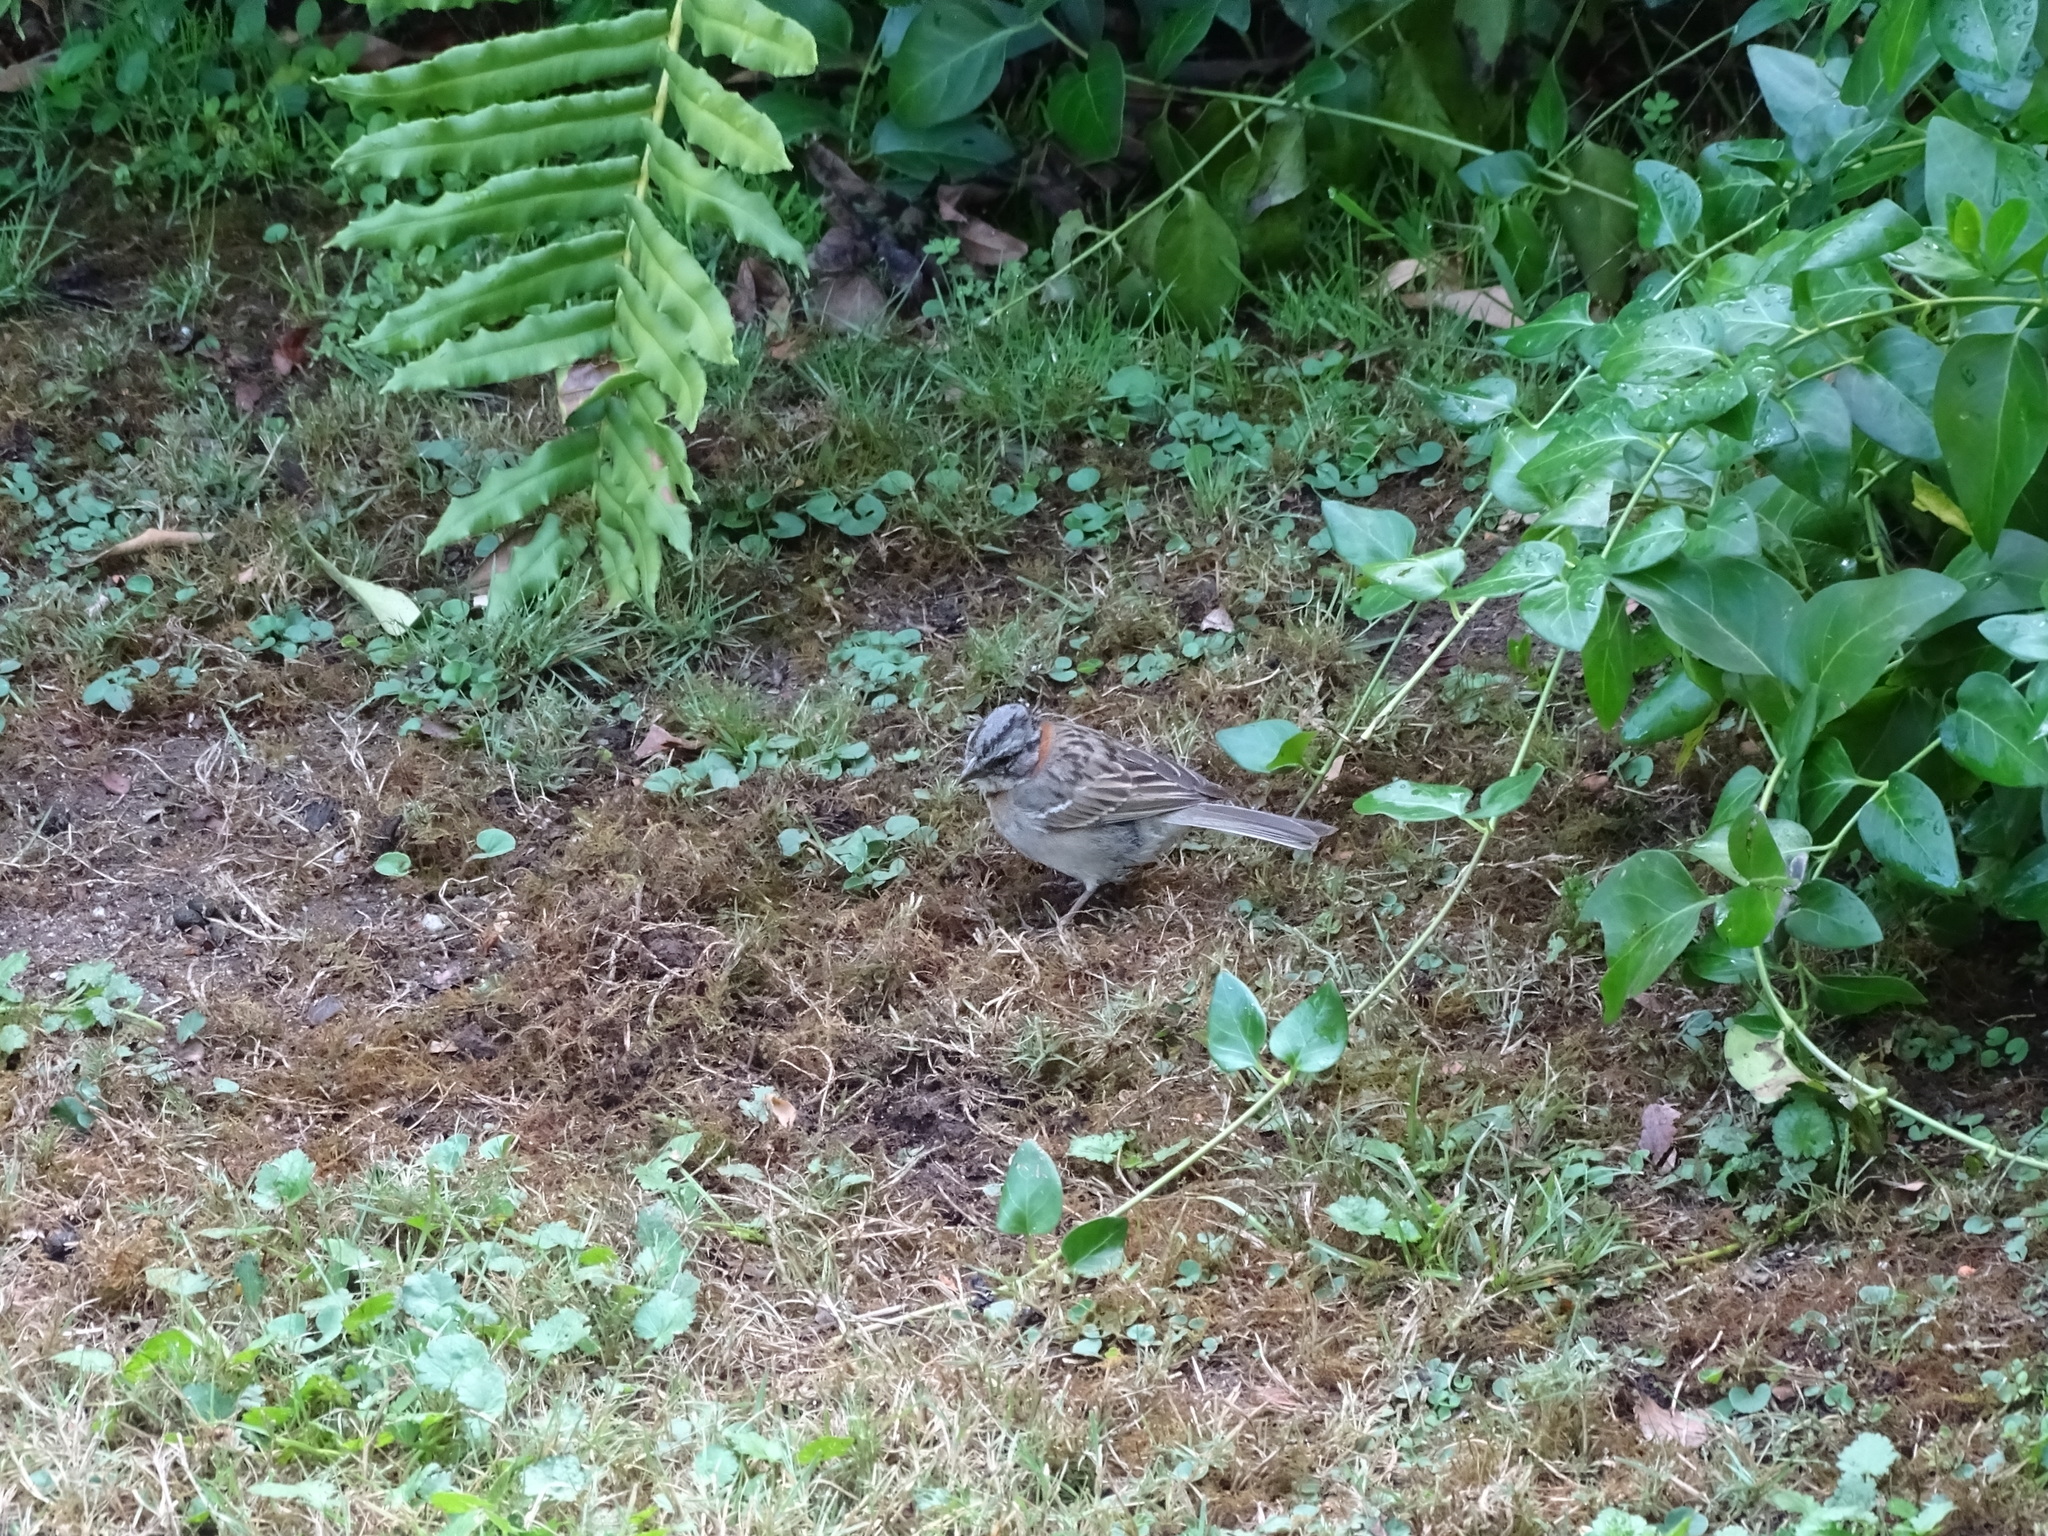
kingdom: Animalia
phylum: Chordata
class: Aves
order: Passeriformes
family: Passerellidae
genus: Zonotrichia
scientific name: Zonotrichia capensis
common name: Rufous-collared sparrow
